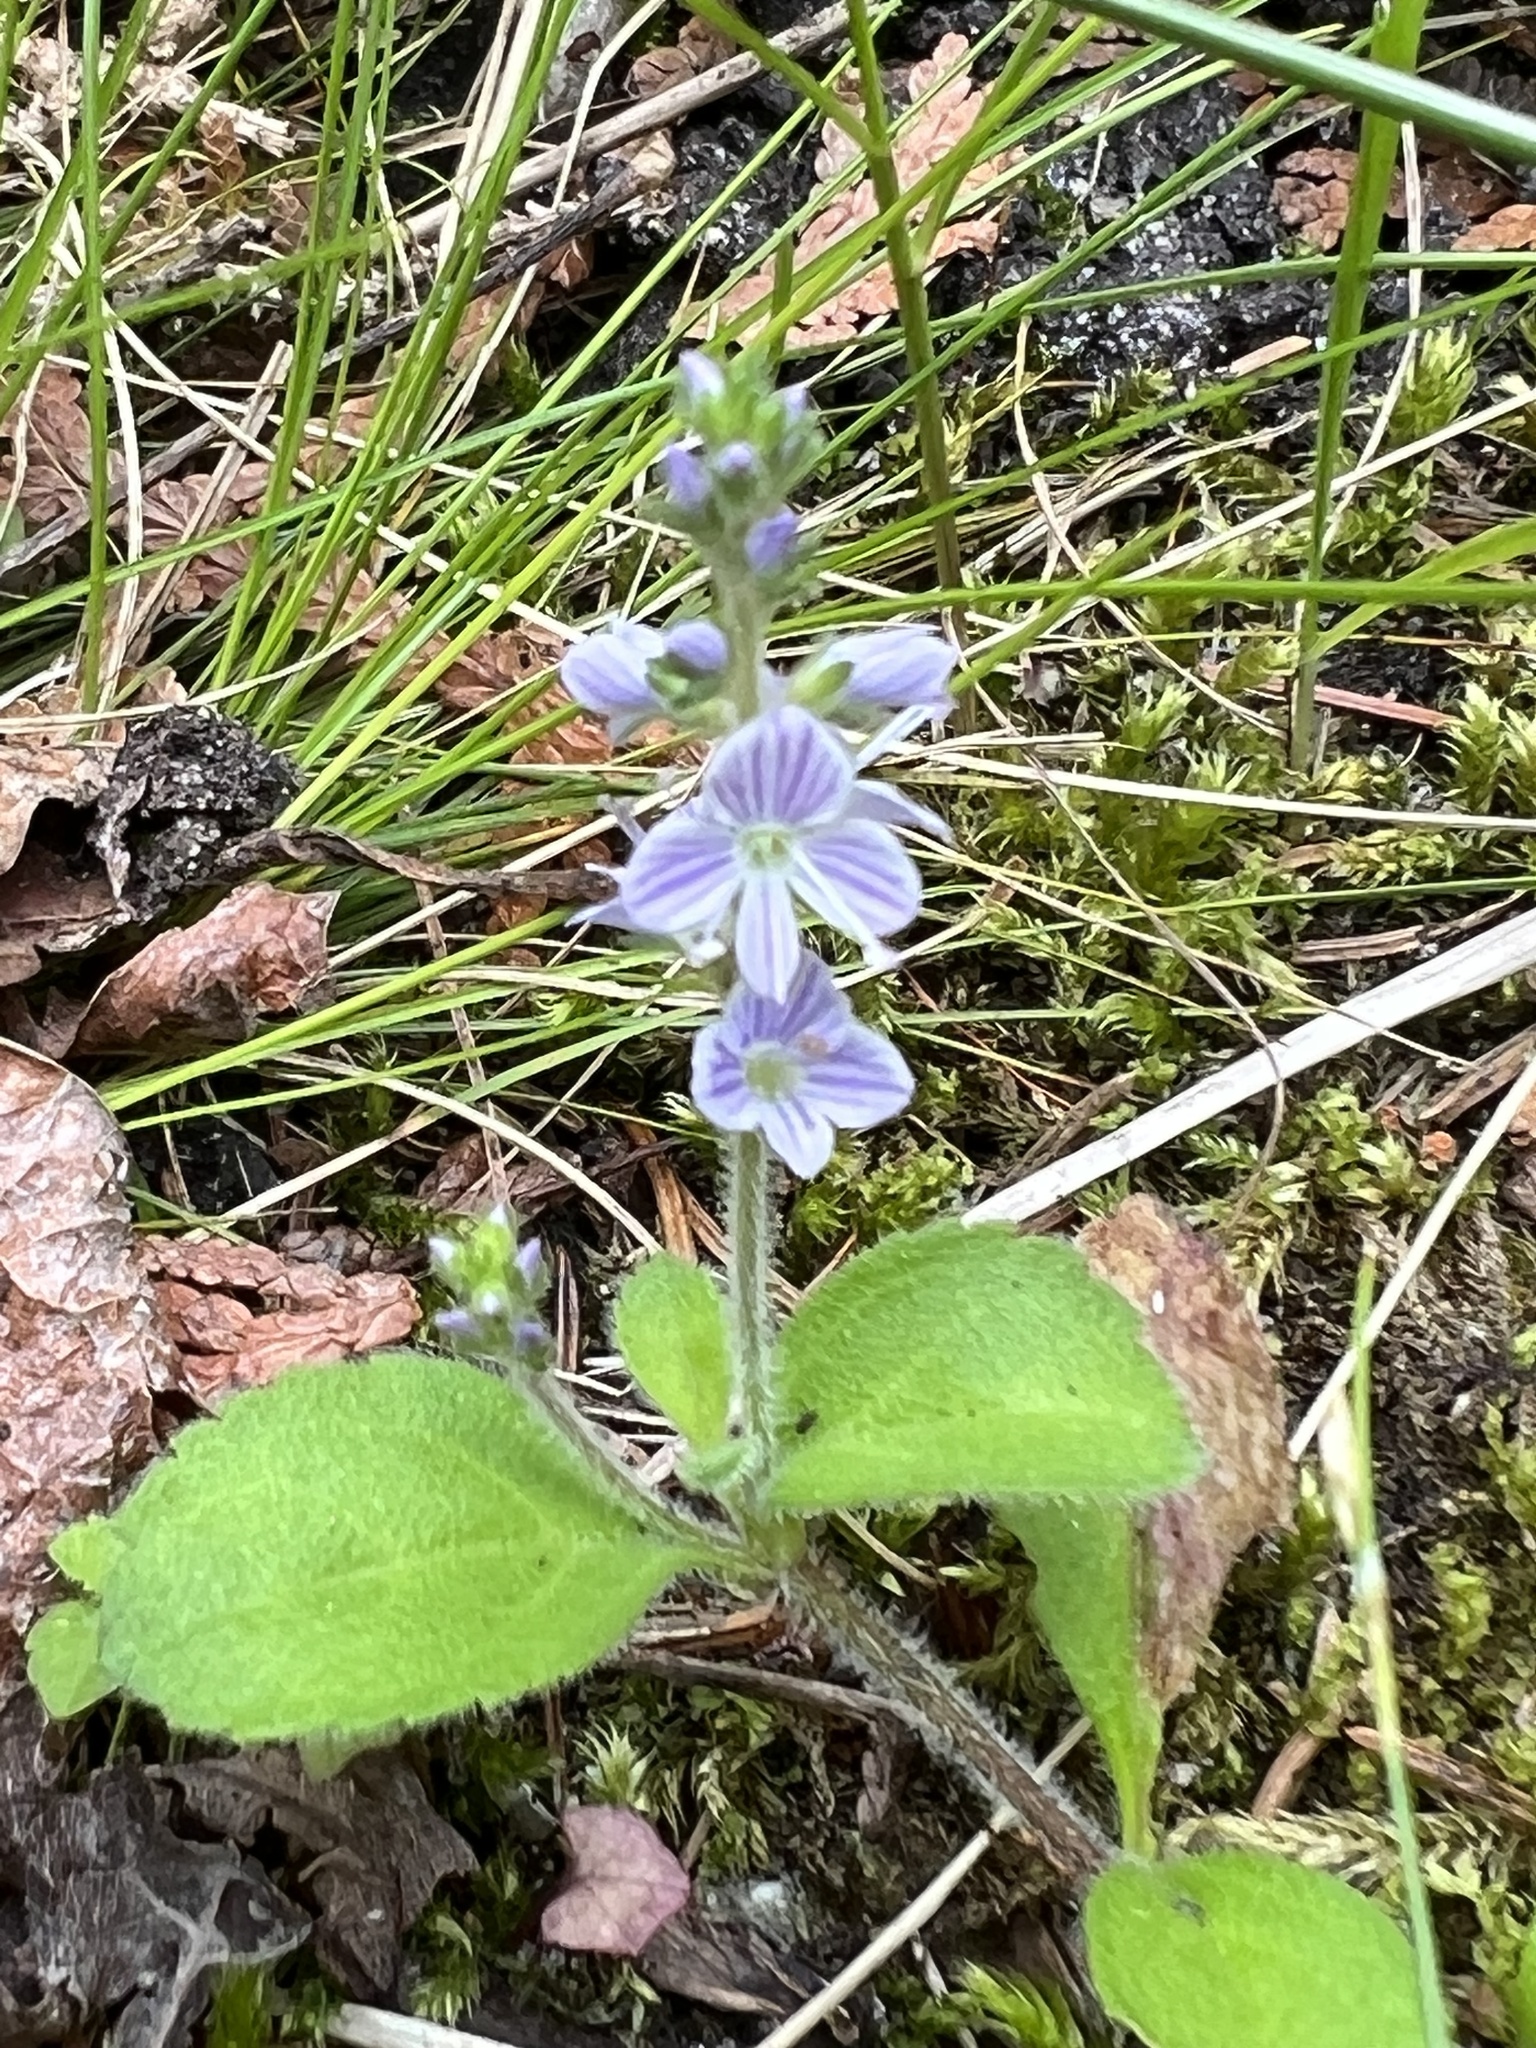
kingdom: Plantae
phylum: Tracheophyta
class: Magnoliopsida
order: Lamiales
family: Plantaginaceae
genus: Veronica
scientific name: Veronica officinalis
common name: Common speedwell
